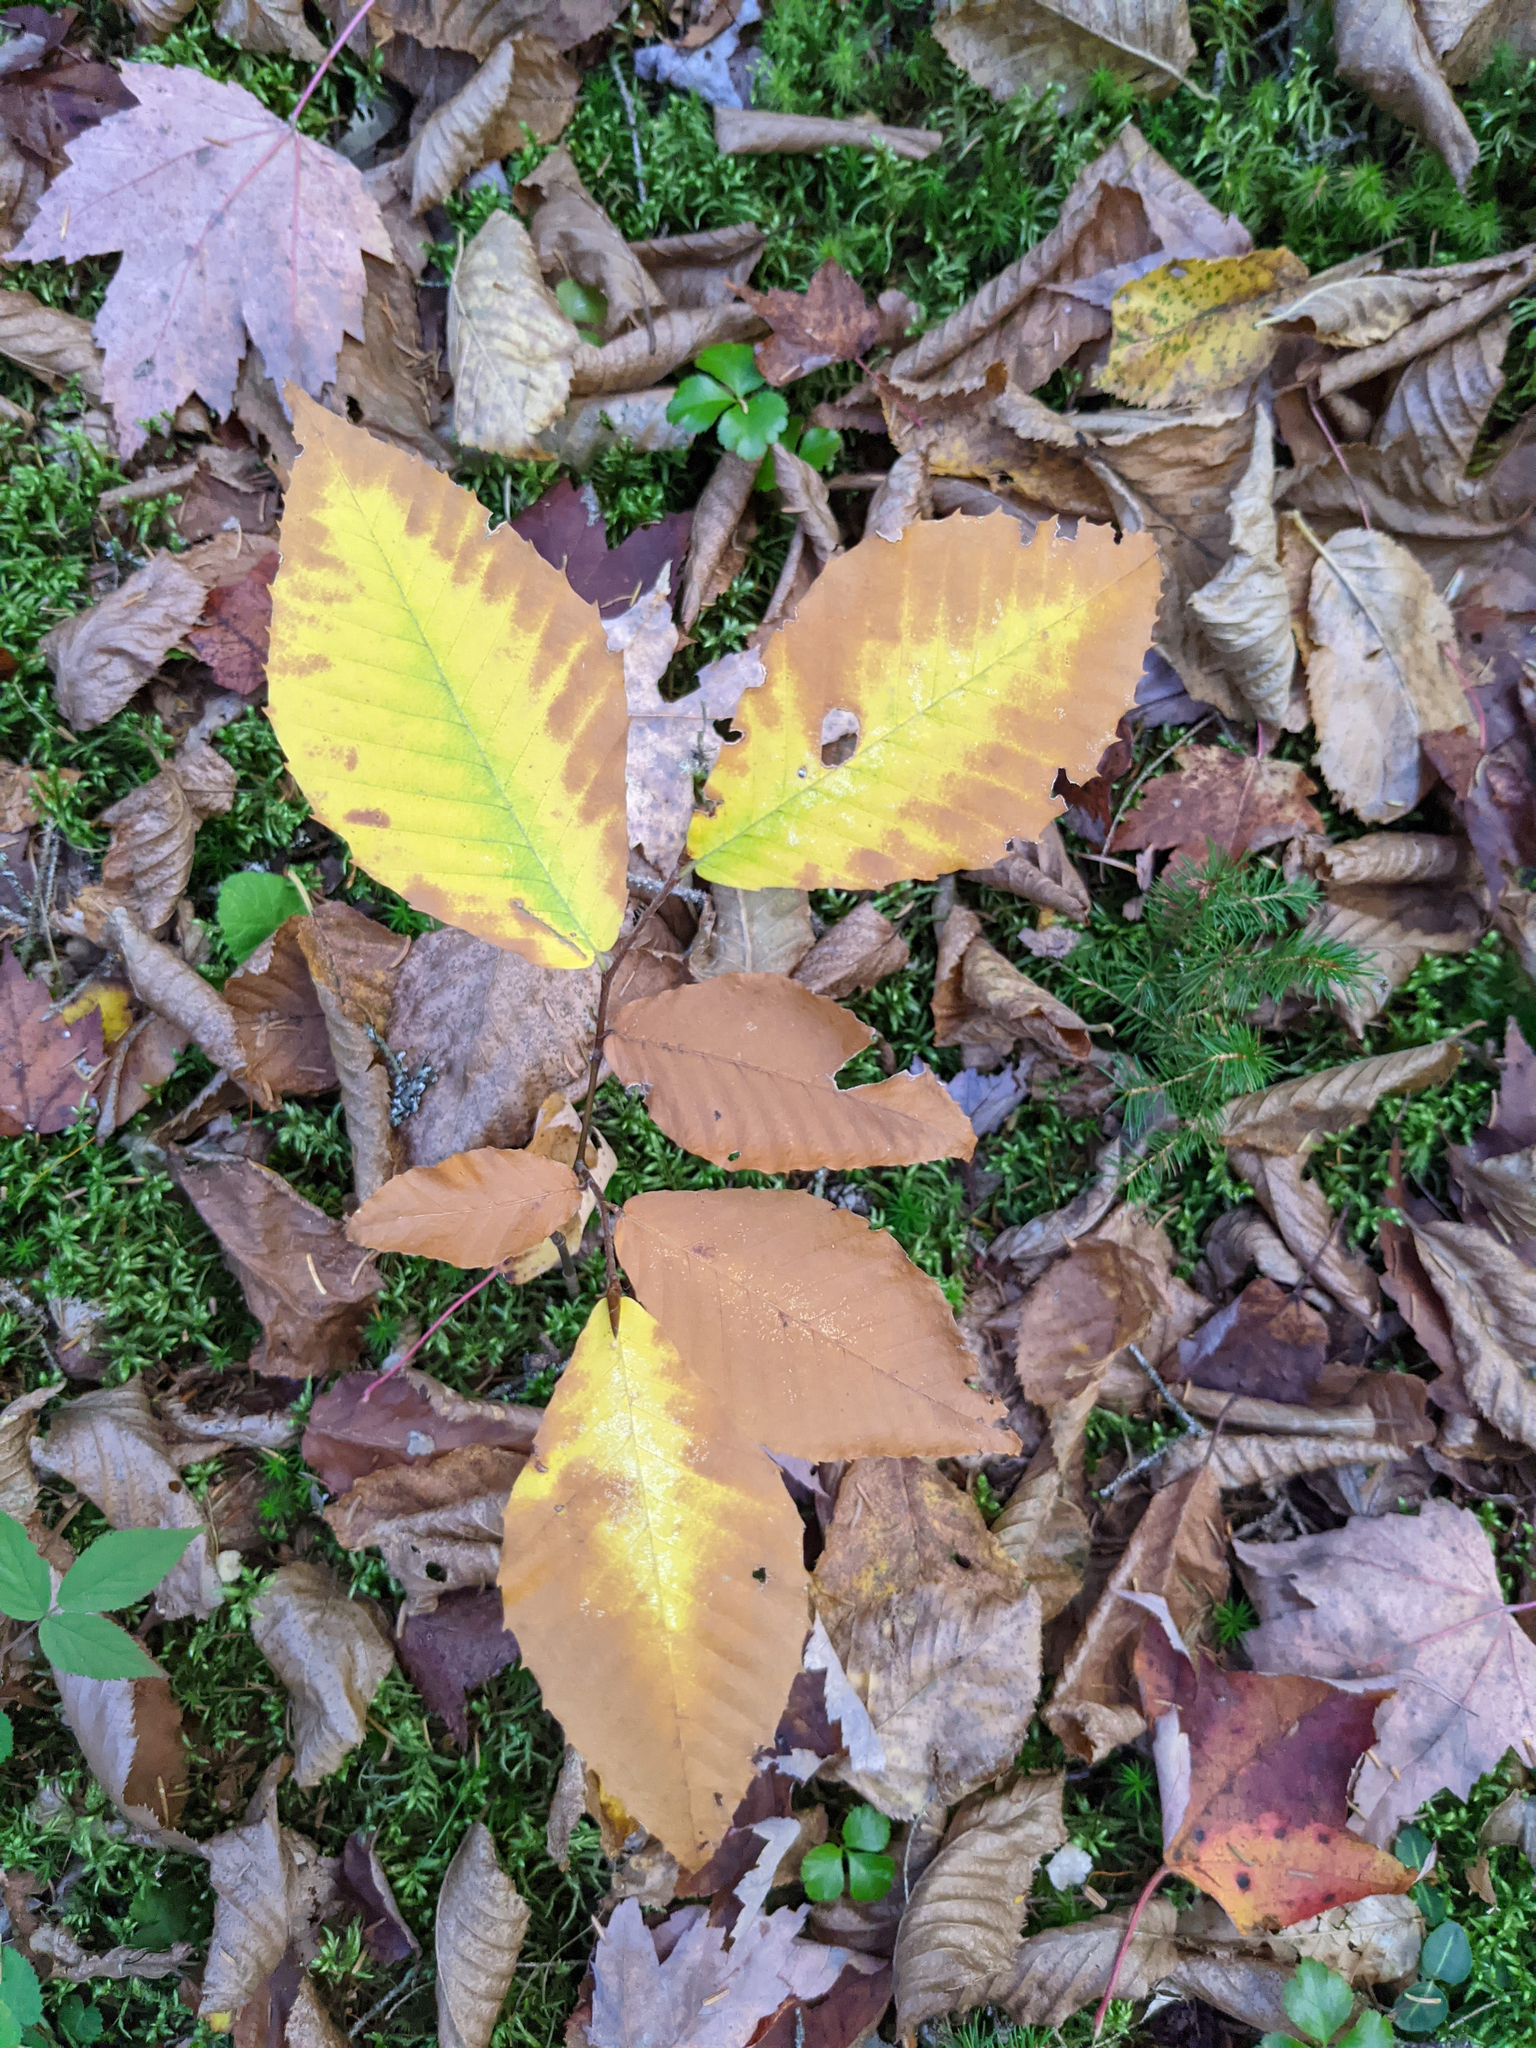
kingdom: Plantae
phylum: Tracheophyta
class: Magnoliopsida
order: Fagales
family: Fagaceae
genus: Fagus
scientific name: Fagus grandifolia
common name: American beech
